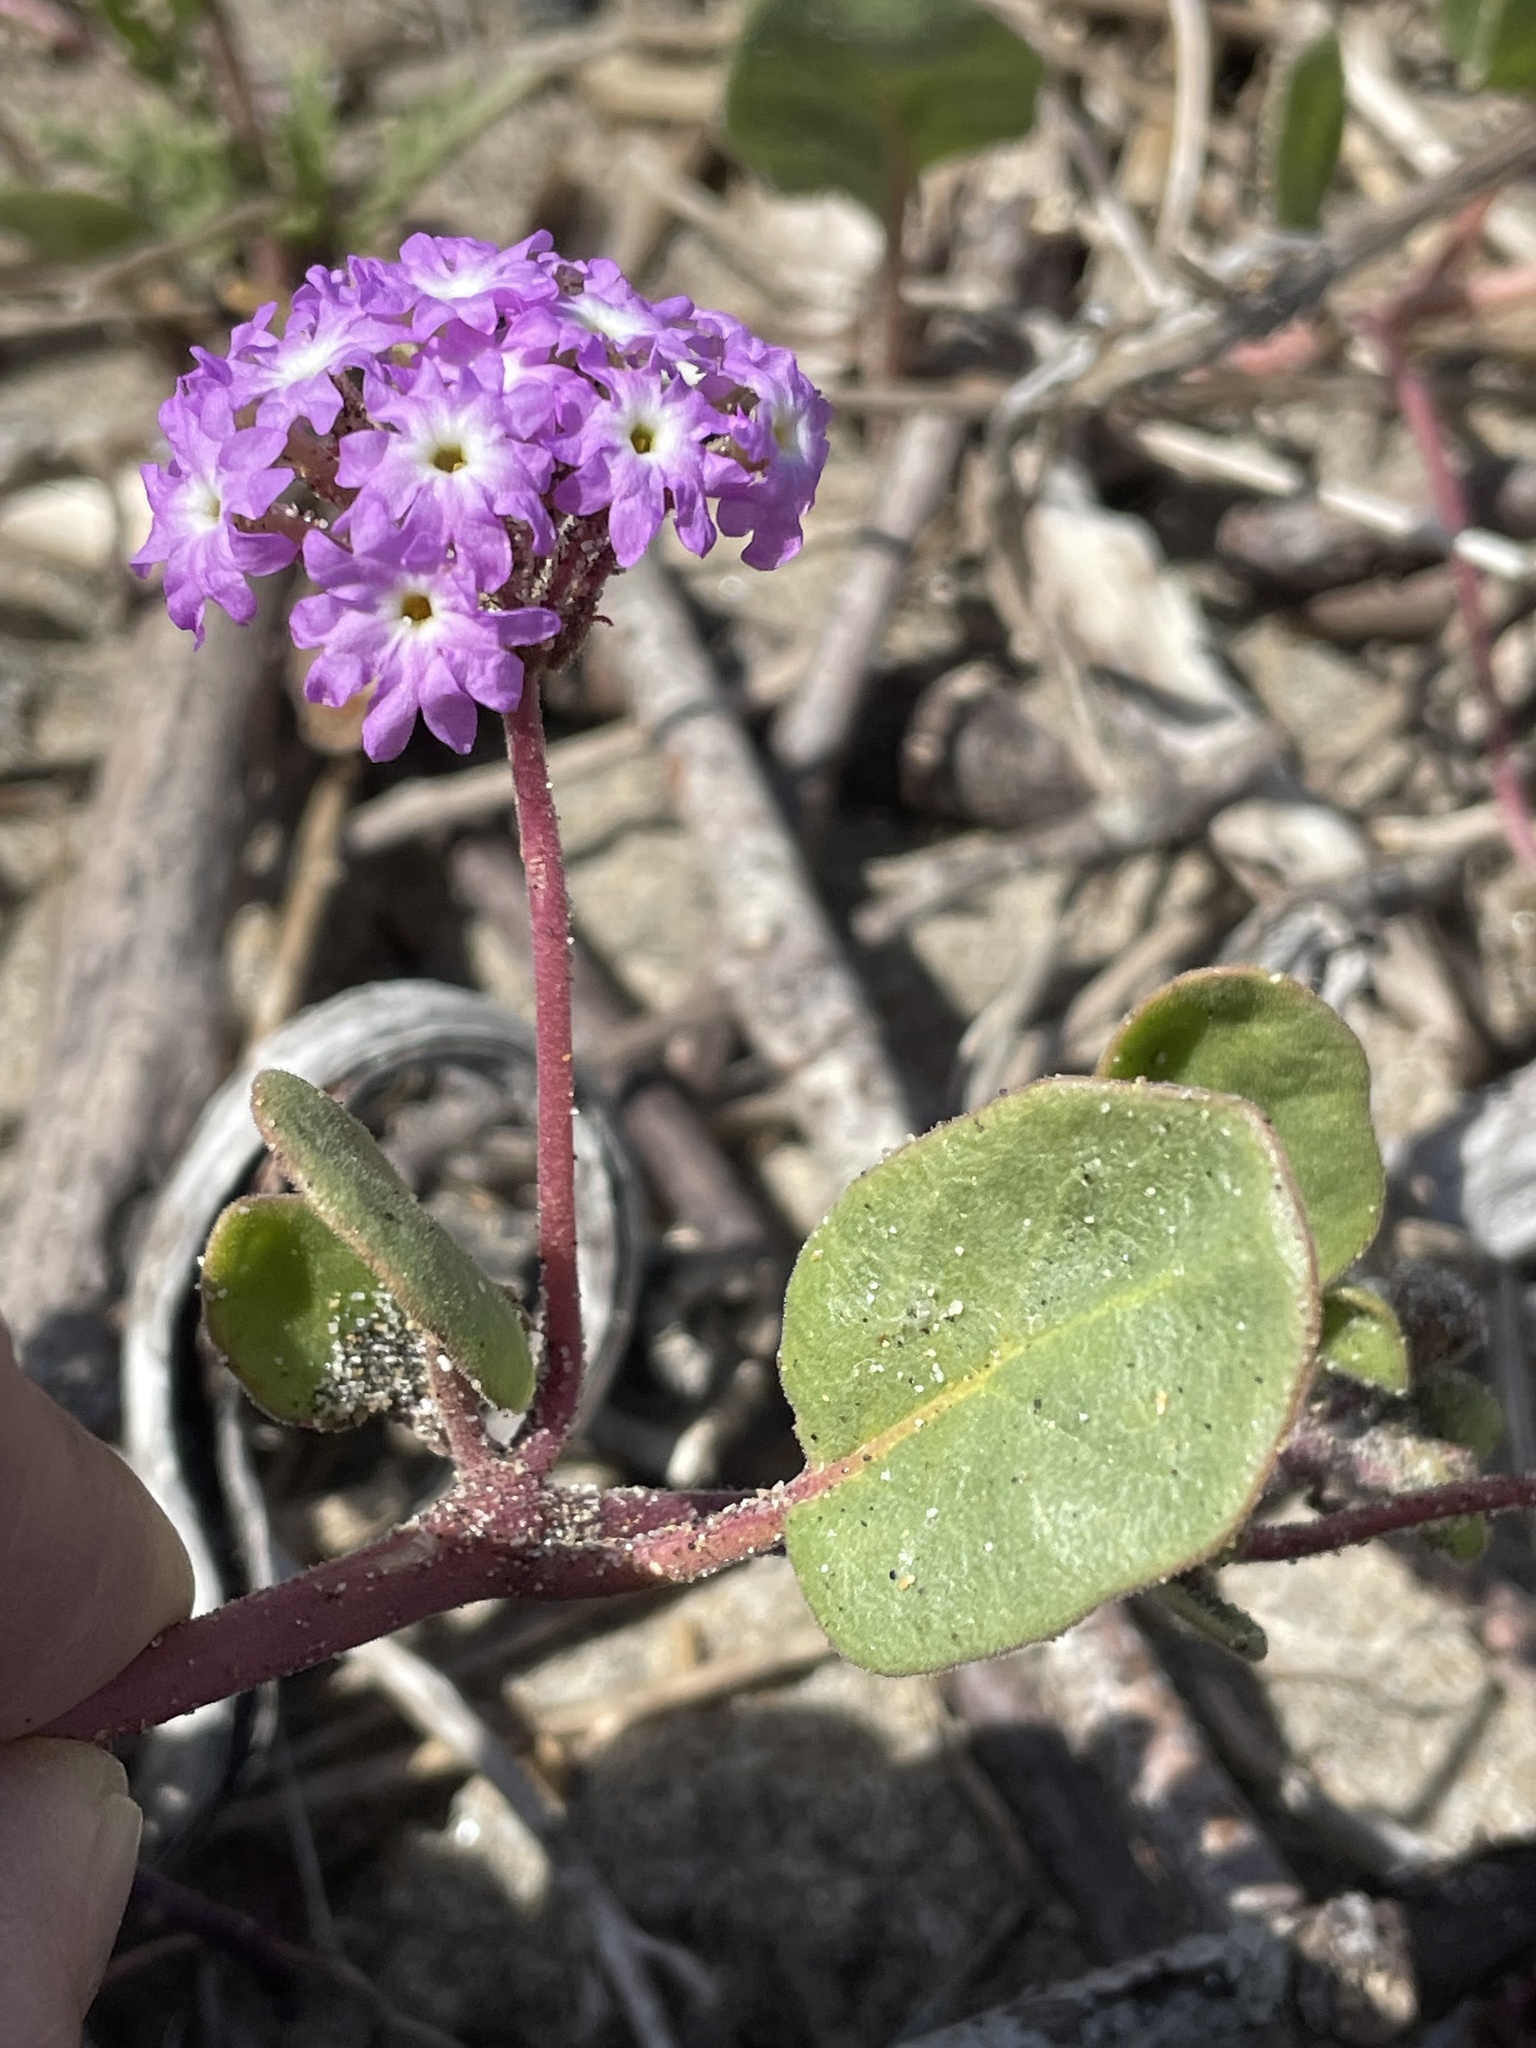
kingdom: Plantae
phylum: Tracheophyta
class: Magnoliopsida
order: Caryophyllales
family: Nyctaginaceae
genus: Abronia
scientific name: Abronia umbellata
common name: Sand-verbena
